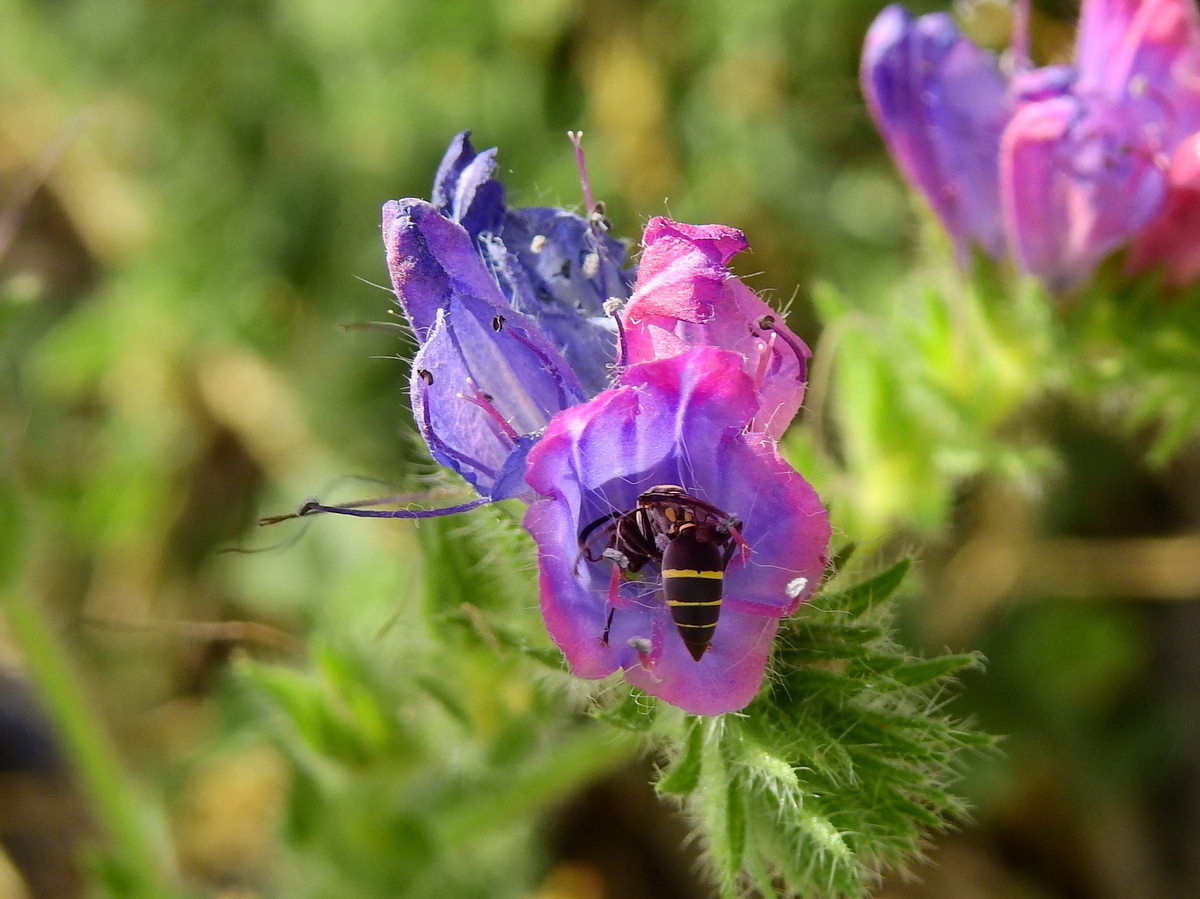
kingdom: Animalia
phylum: Arthropoda
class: Insecta
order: Hymenoptera
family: Eumenidae
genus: Polybia
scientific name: Polybia ruficeps
